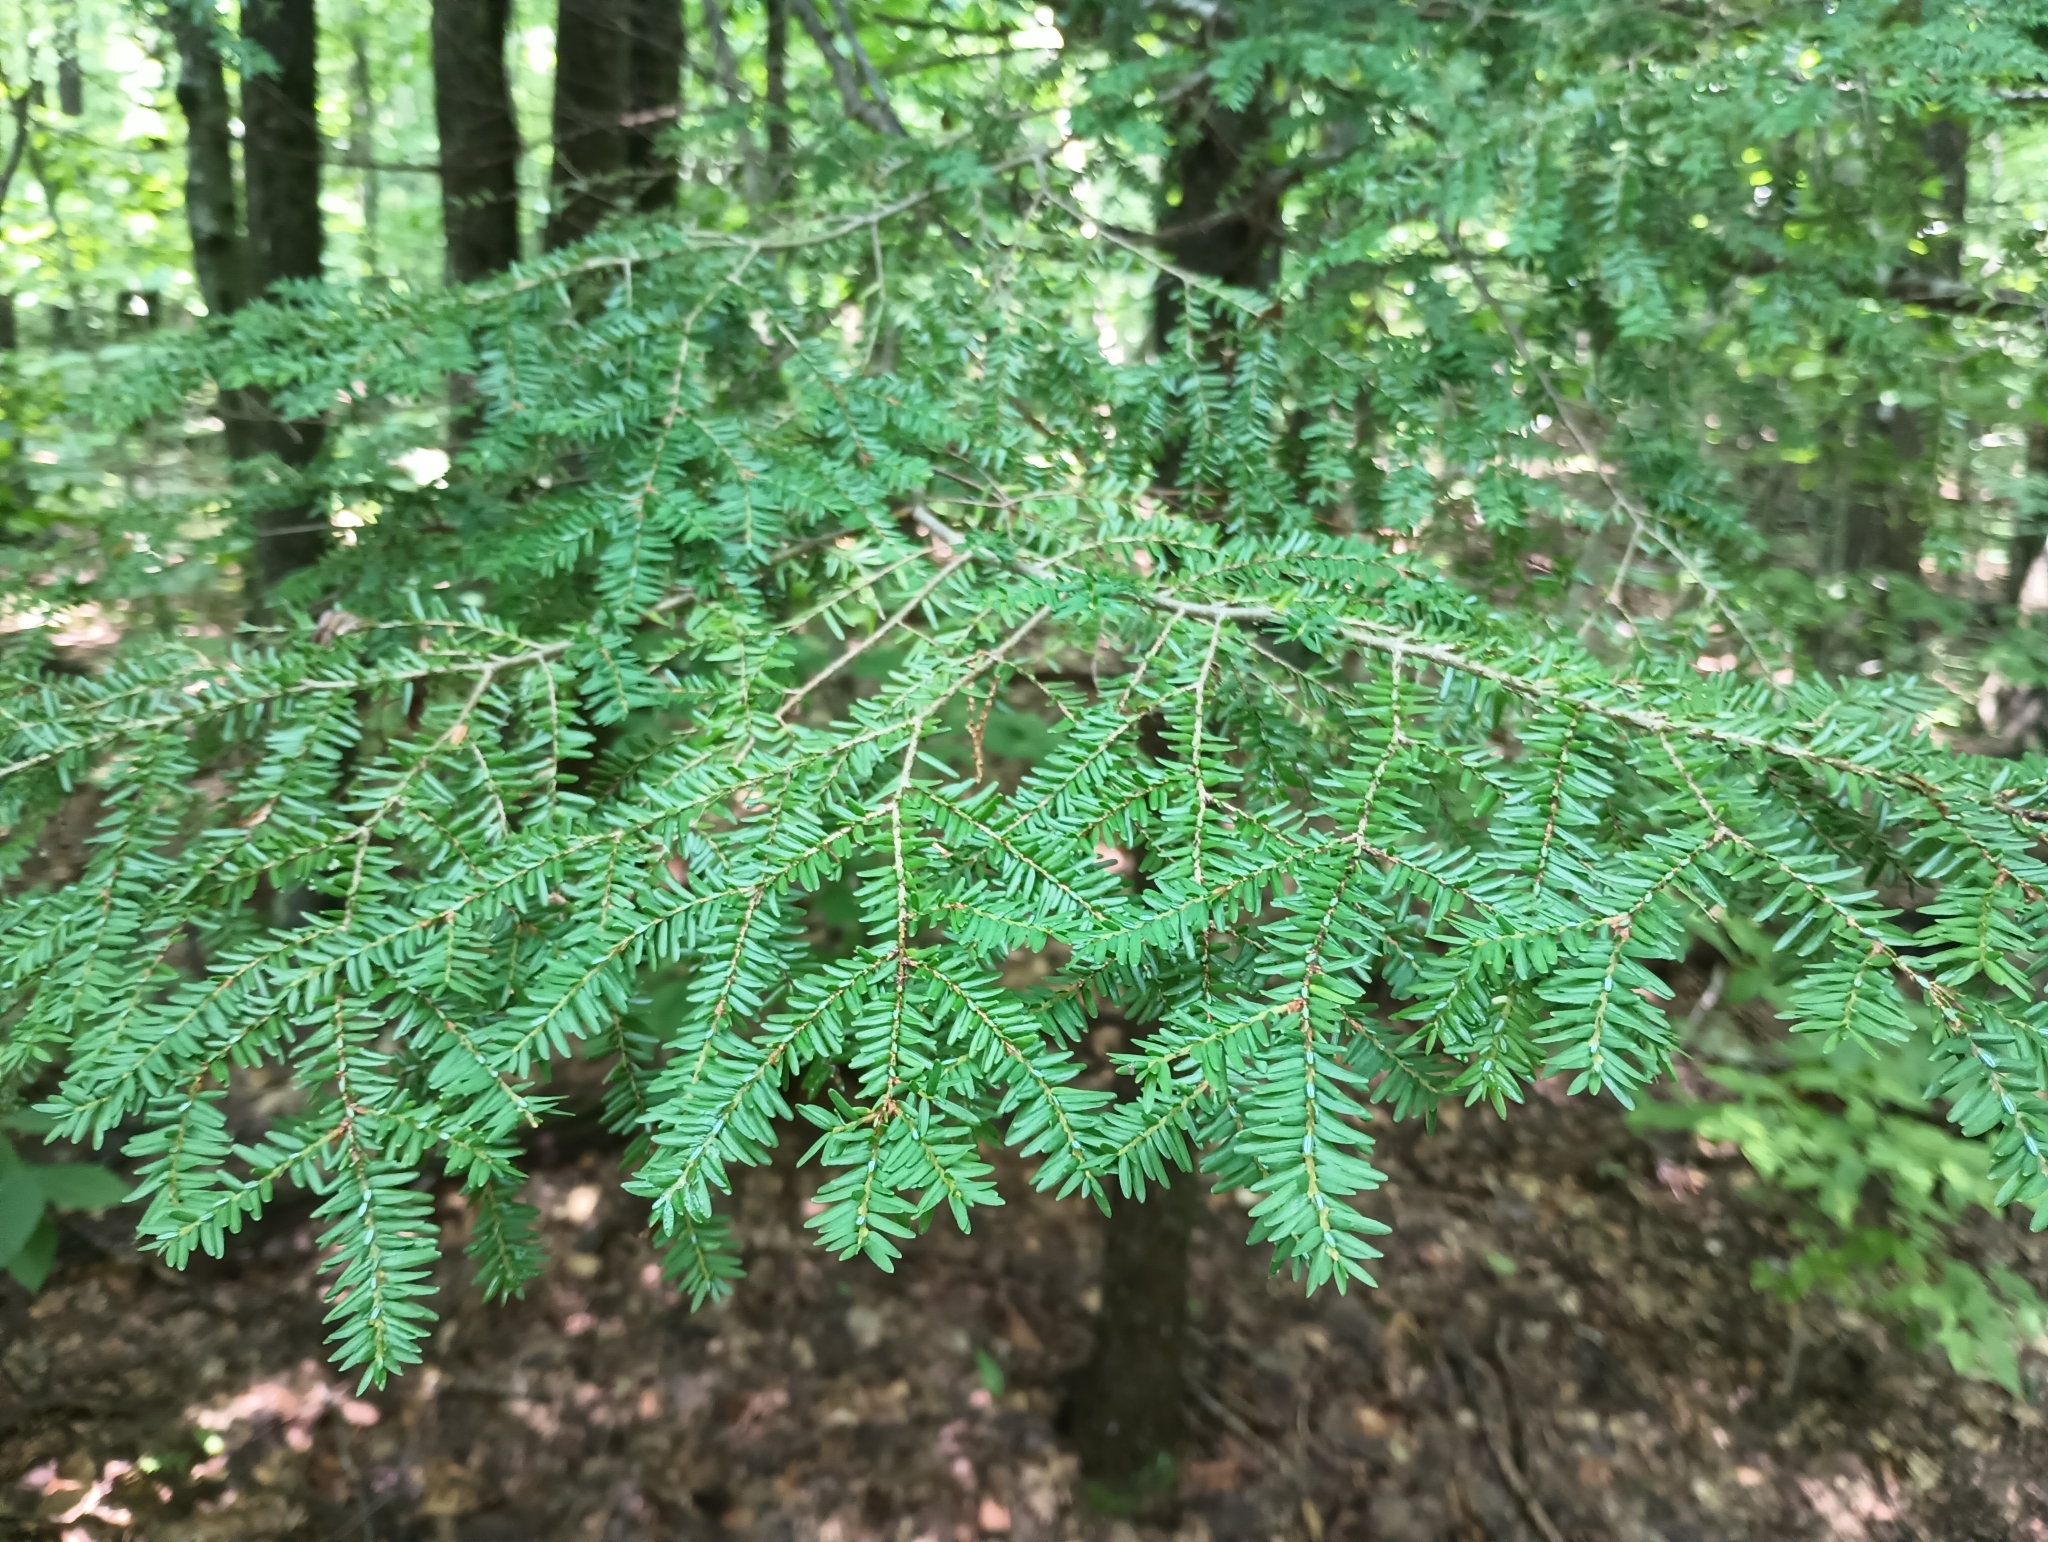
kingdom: Plantae
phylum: Tracheophyta
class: Pinopsida
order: Pinales
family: Pinaceae
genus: Tsuga
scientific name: Tsuga canadensis
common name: Eastern hemlock
